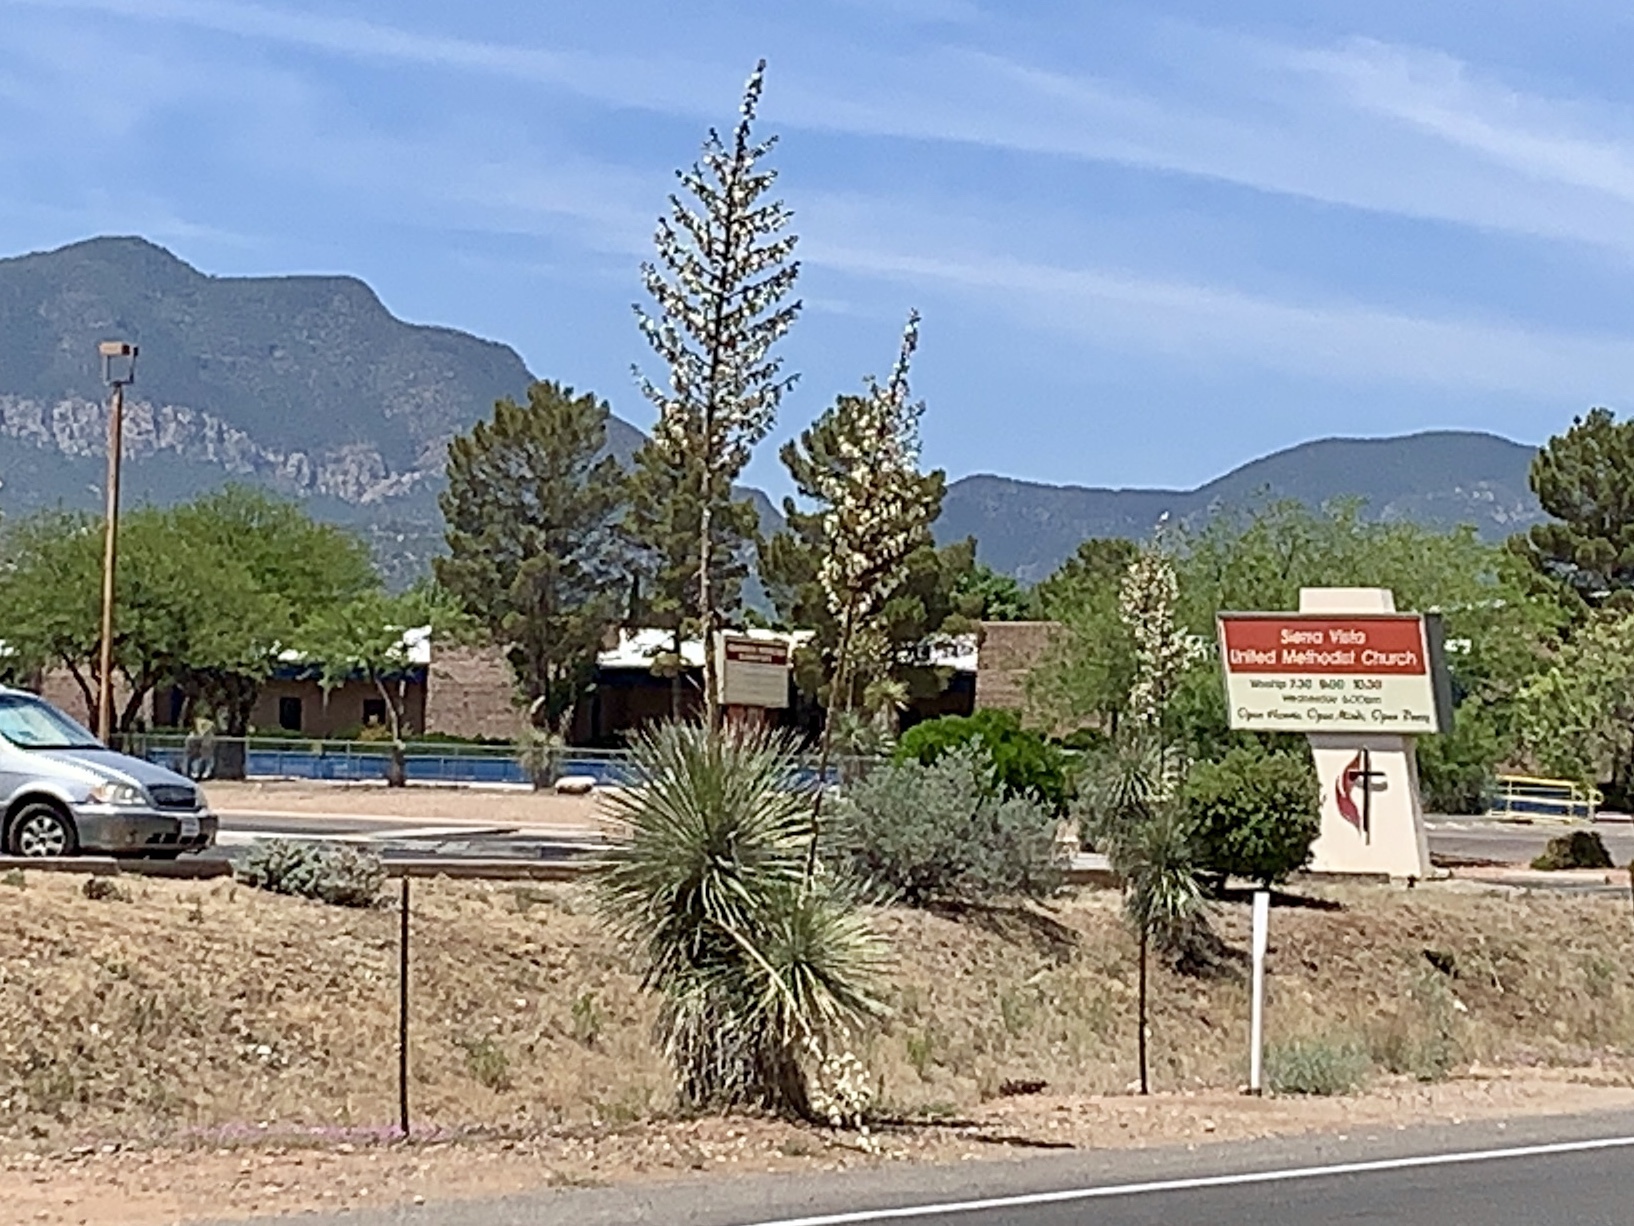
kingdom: Plantae
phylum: Tracheophyta
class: Liliopsida
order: Asparagales
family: Asparagaceae
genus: Yucca
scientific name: Yucca elata
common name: Palmella
